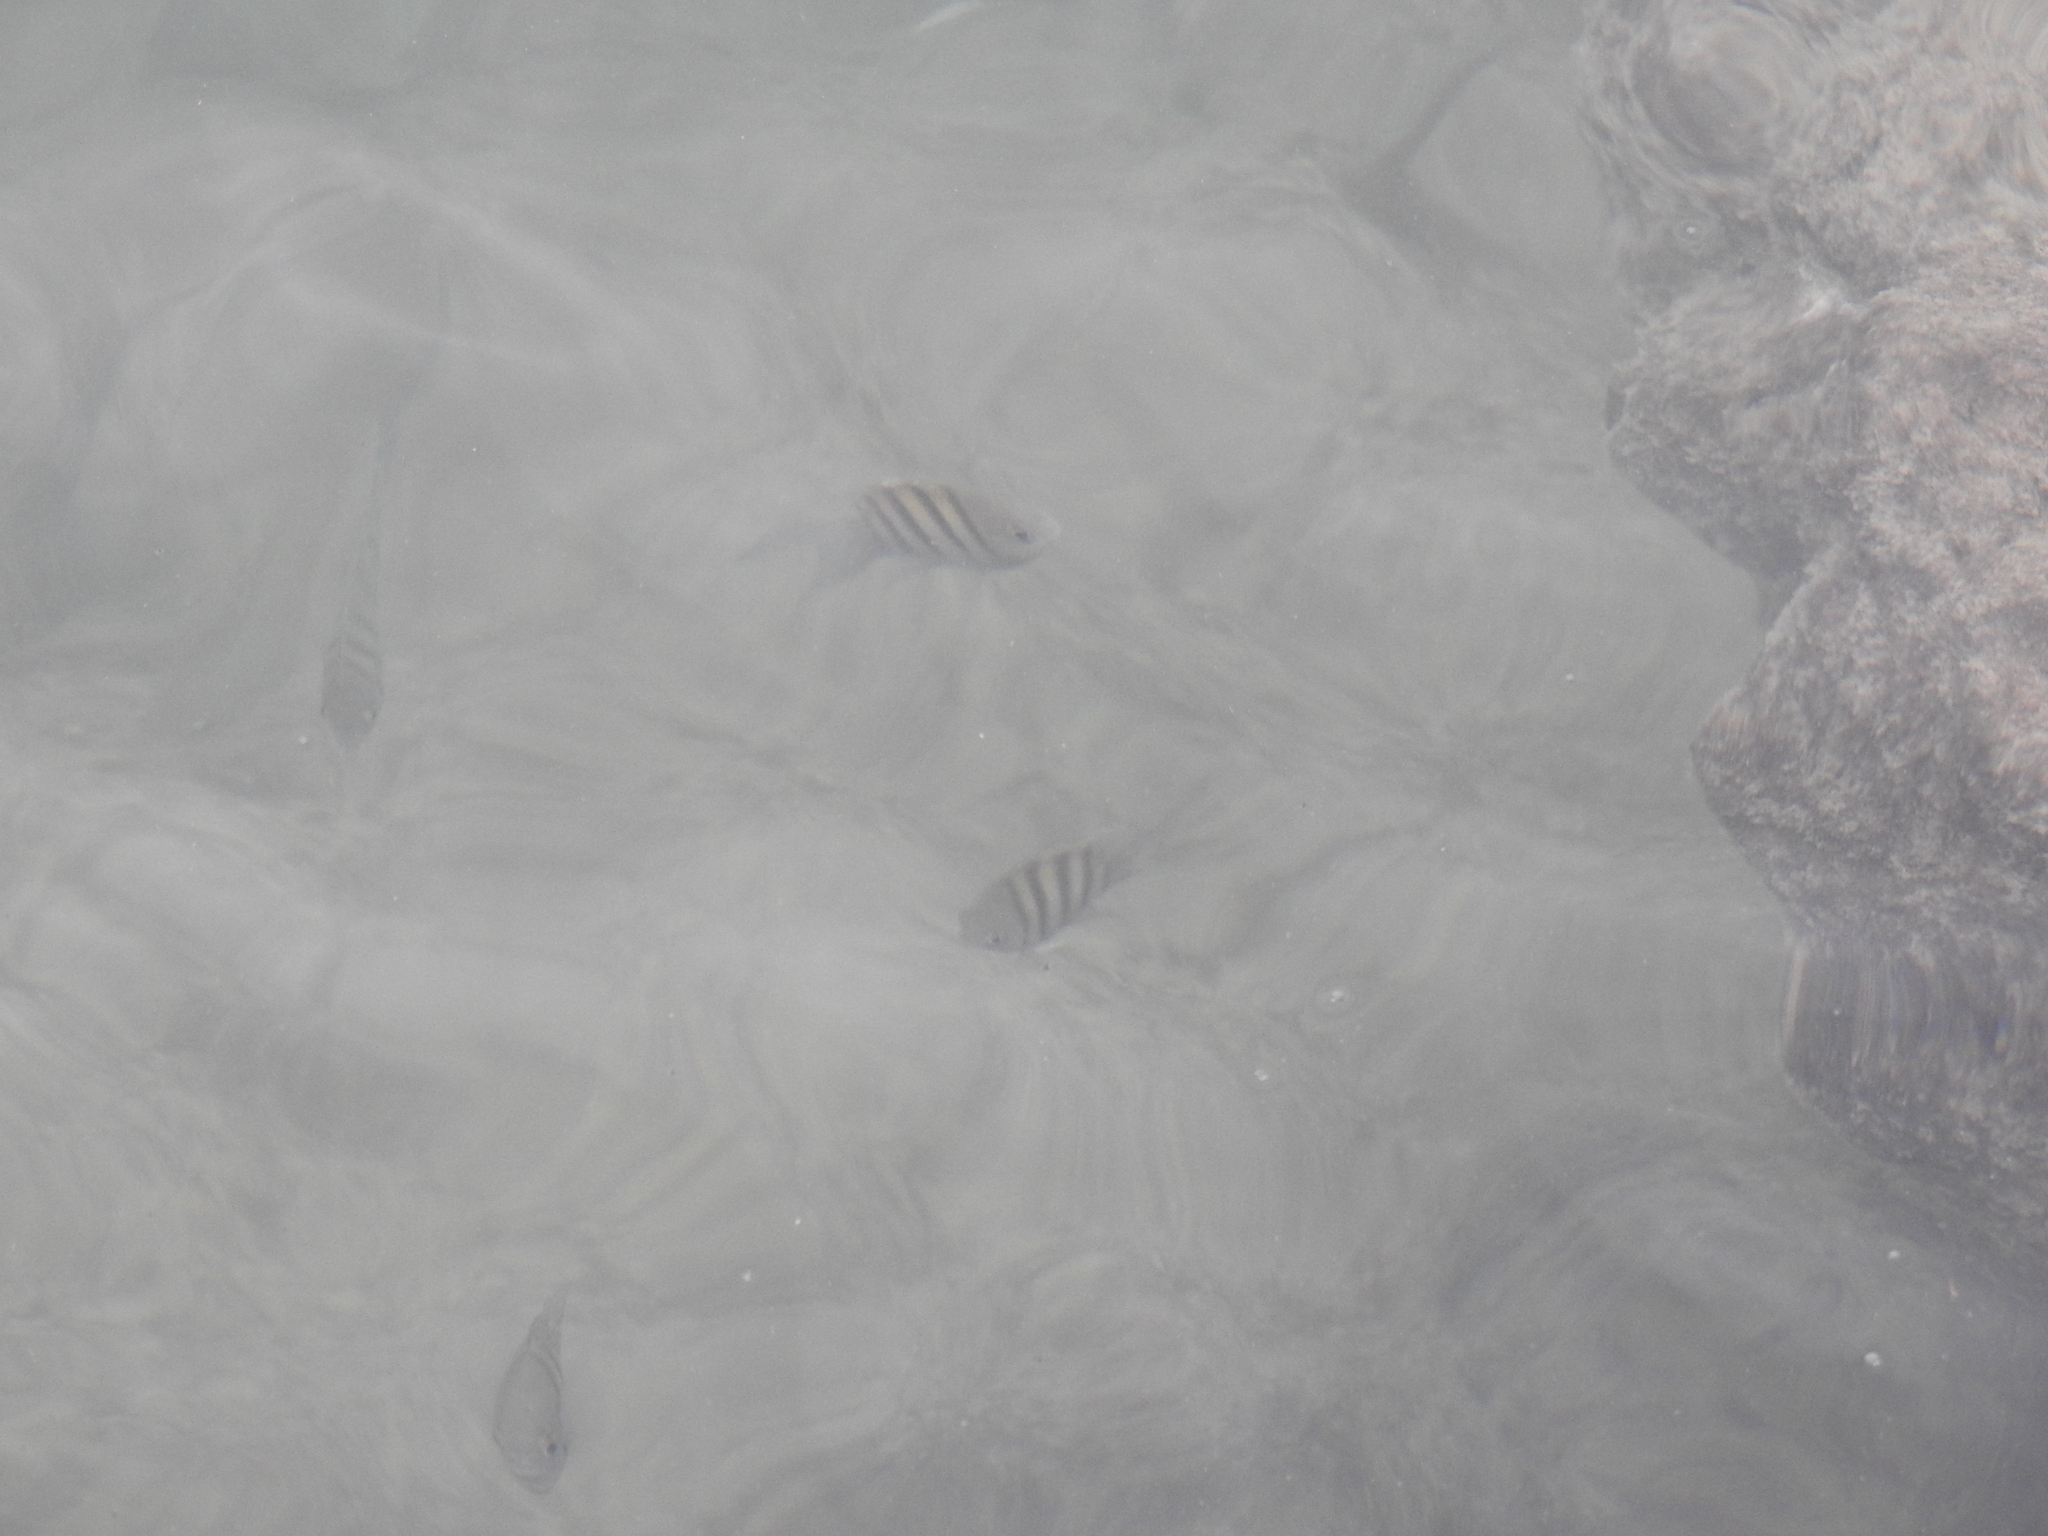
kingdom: Animalia
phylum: Chordata
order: Perciformes
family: Pomacentridae
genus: Abudefduf
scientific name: Abudefduf saxatilis
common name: Sergeant major
